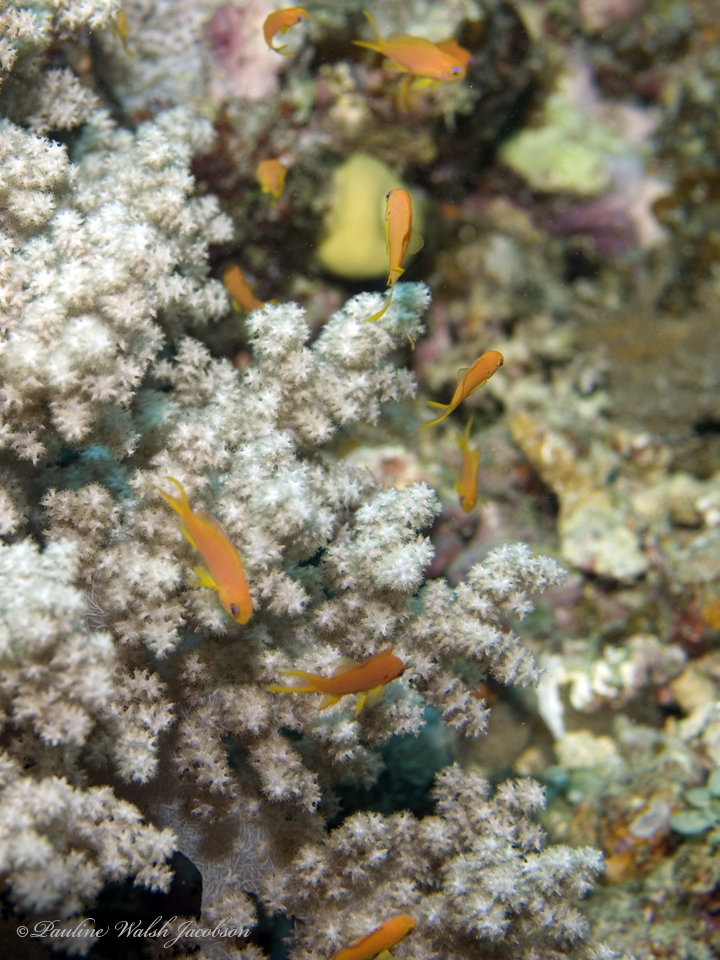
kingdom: Animalia
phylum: Chordata
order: Perciformes
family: Serranidae
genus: Pseudanthias
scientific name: Pseudanthias squamipinnis
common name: Scalefin anthias
